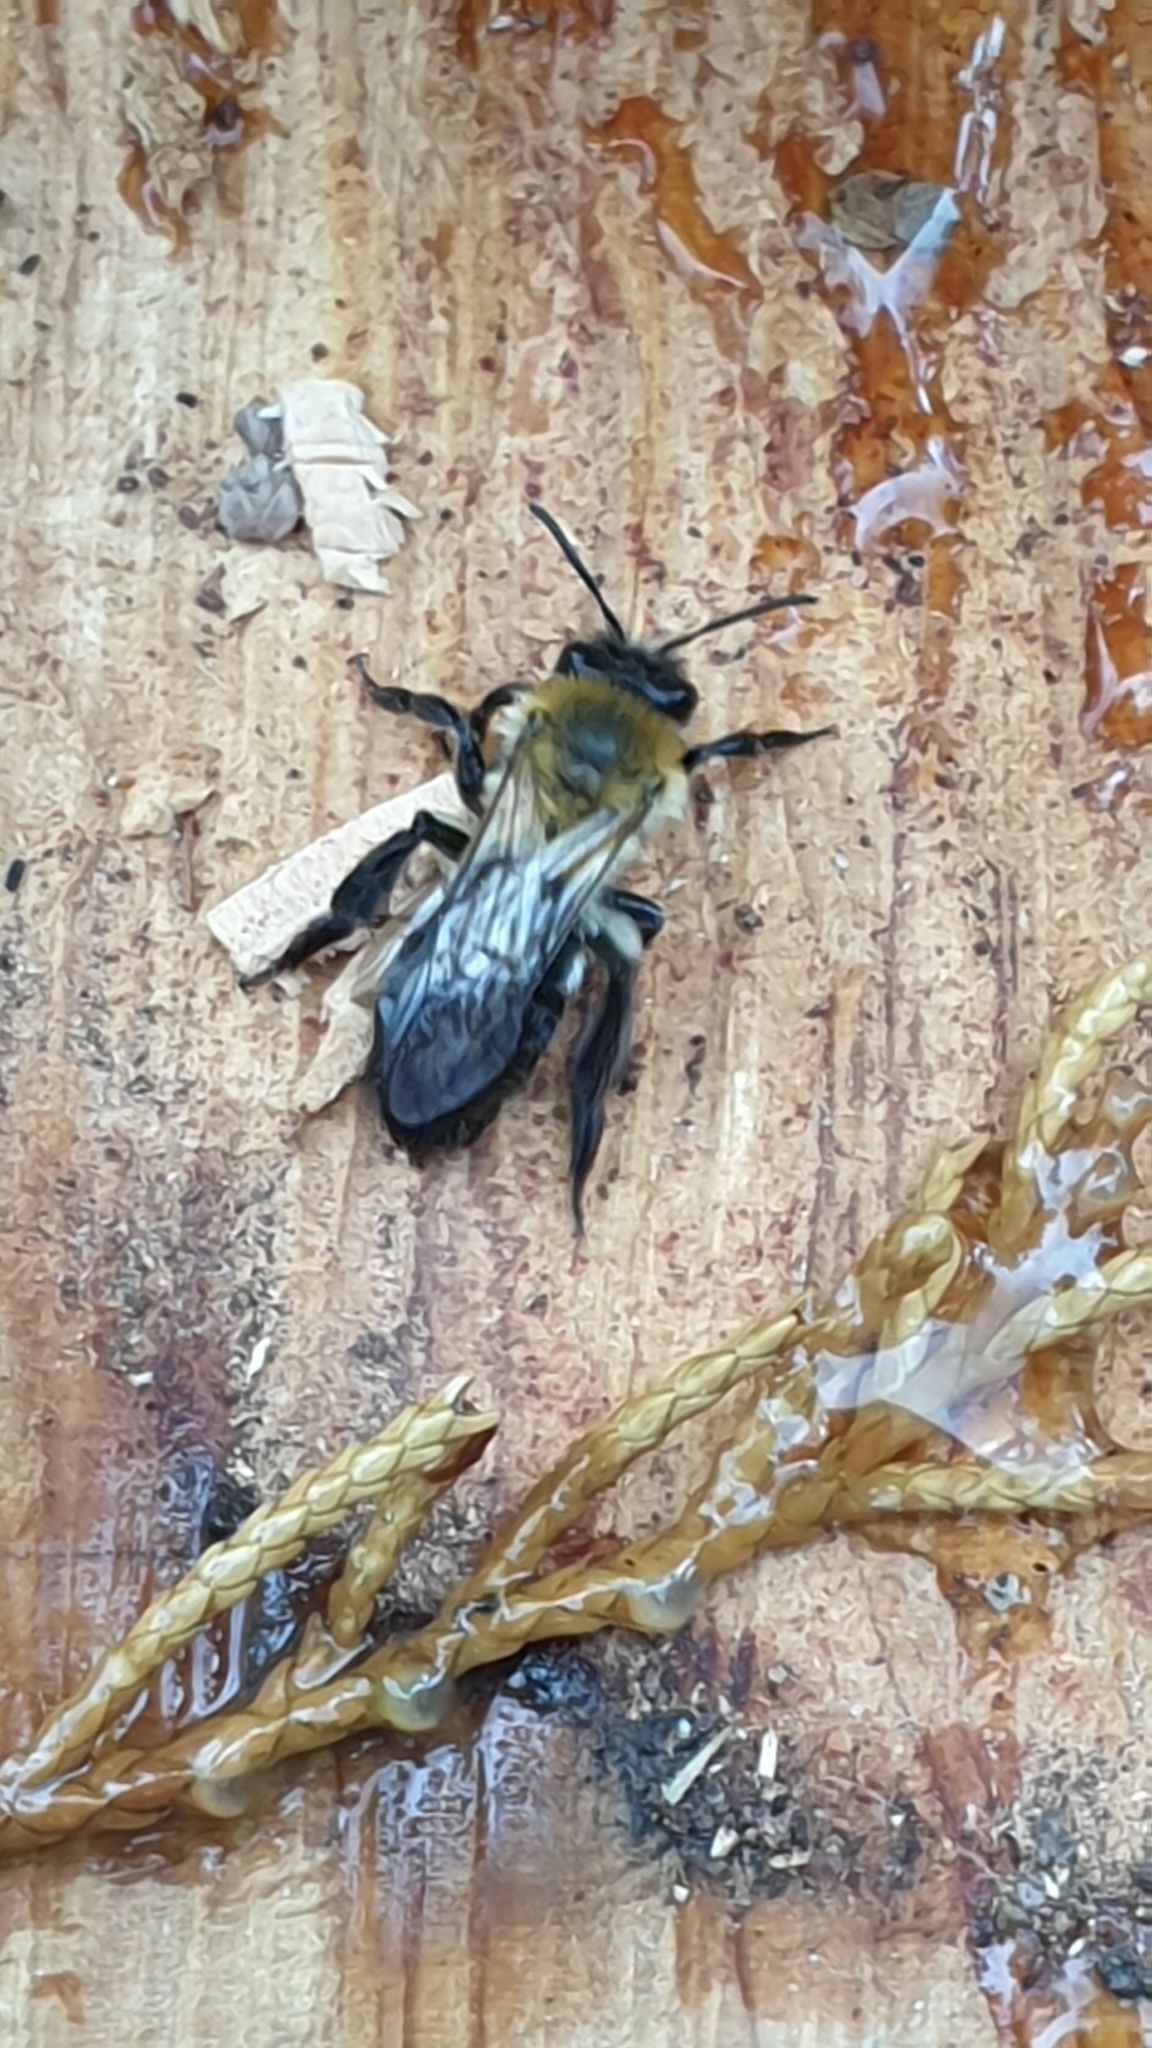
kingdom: Animalia
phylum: Arthropoda
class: Insecta
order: Hymenoptera
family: Andrenidae
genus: Andrena
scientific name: Andrena nitida
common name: Grey-patched mining bee
